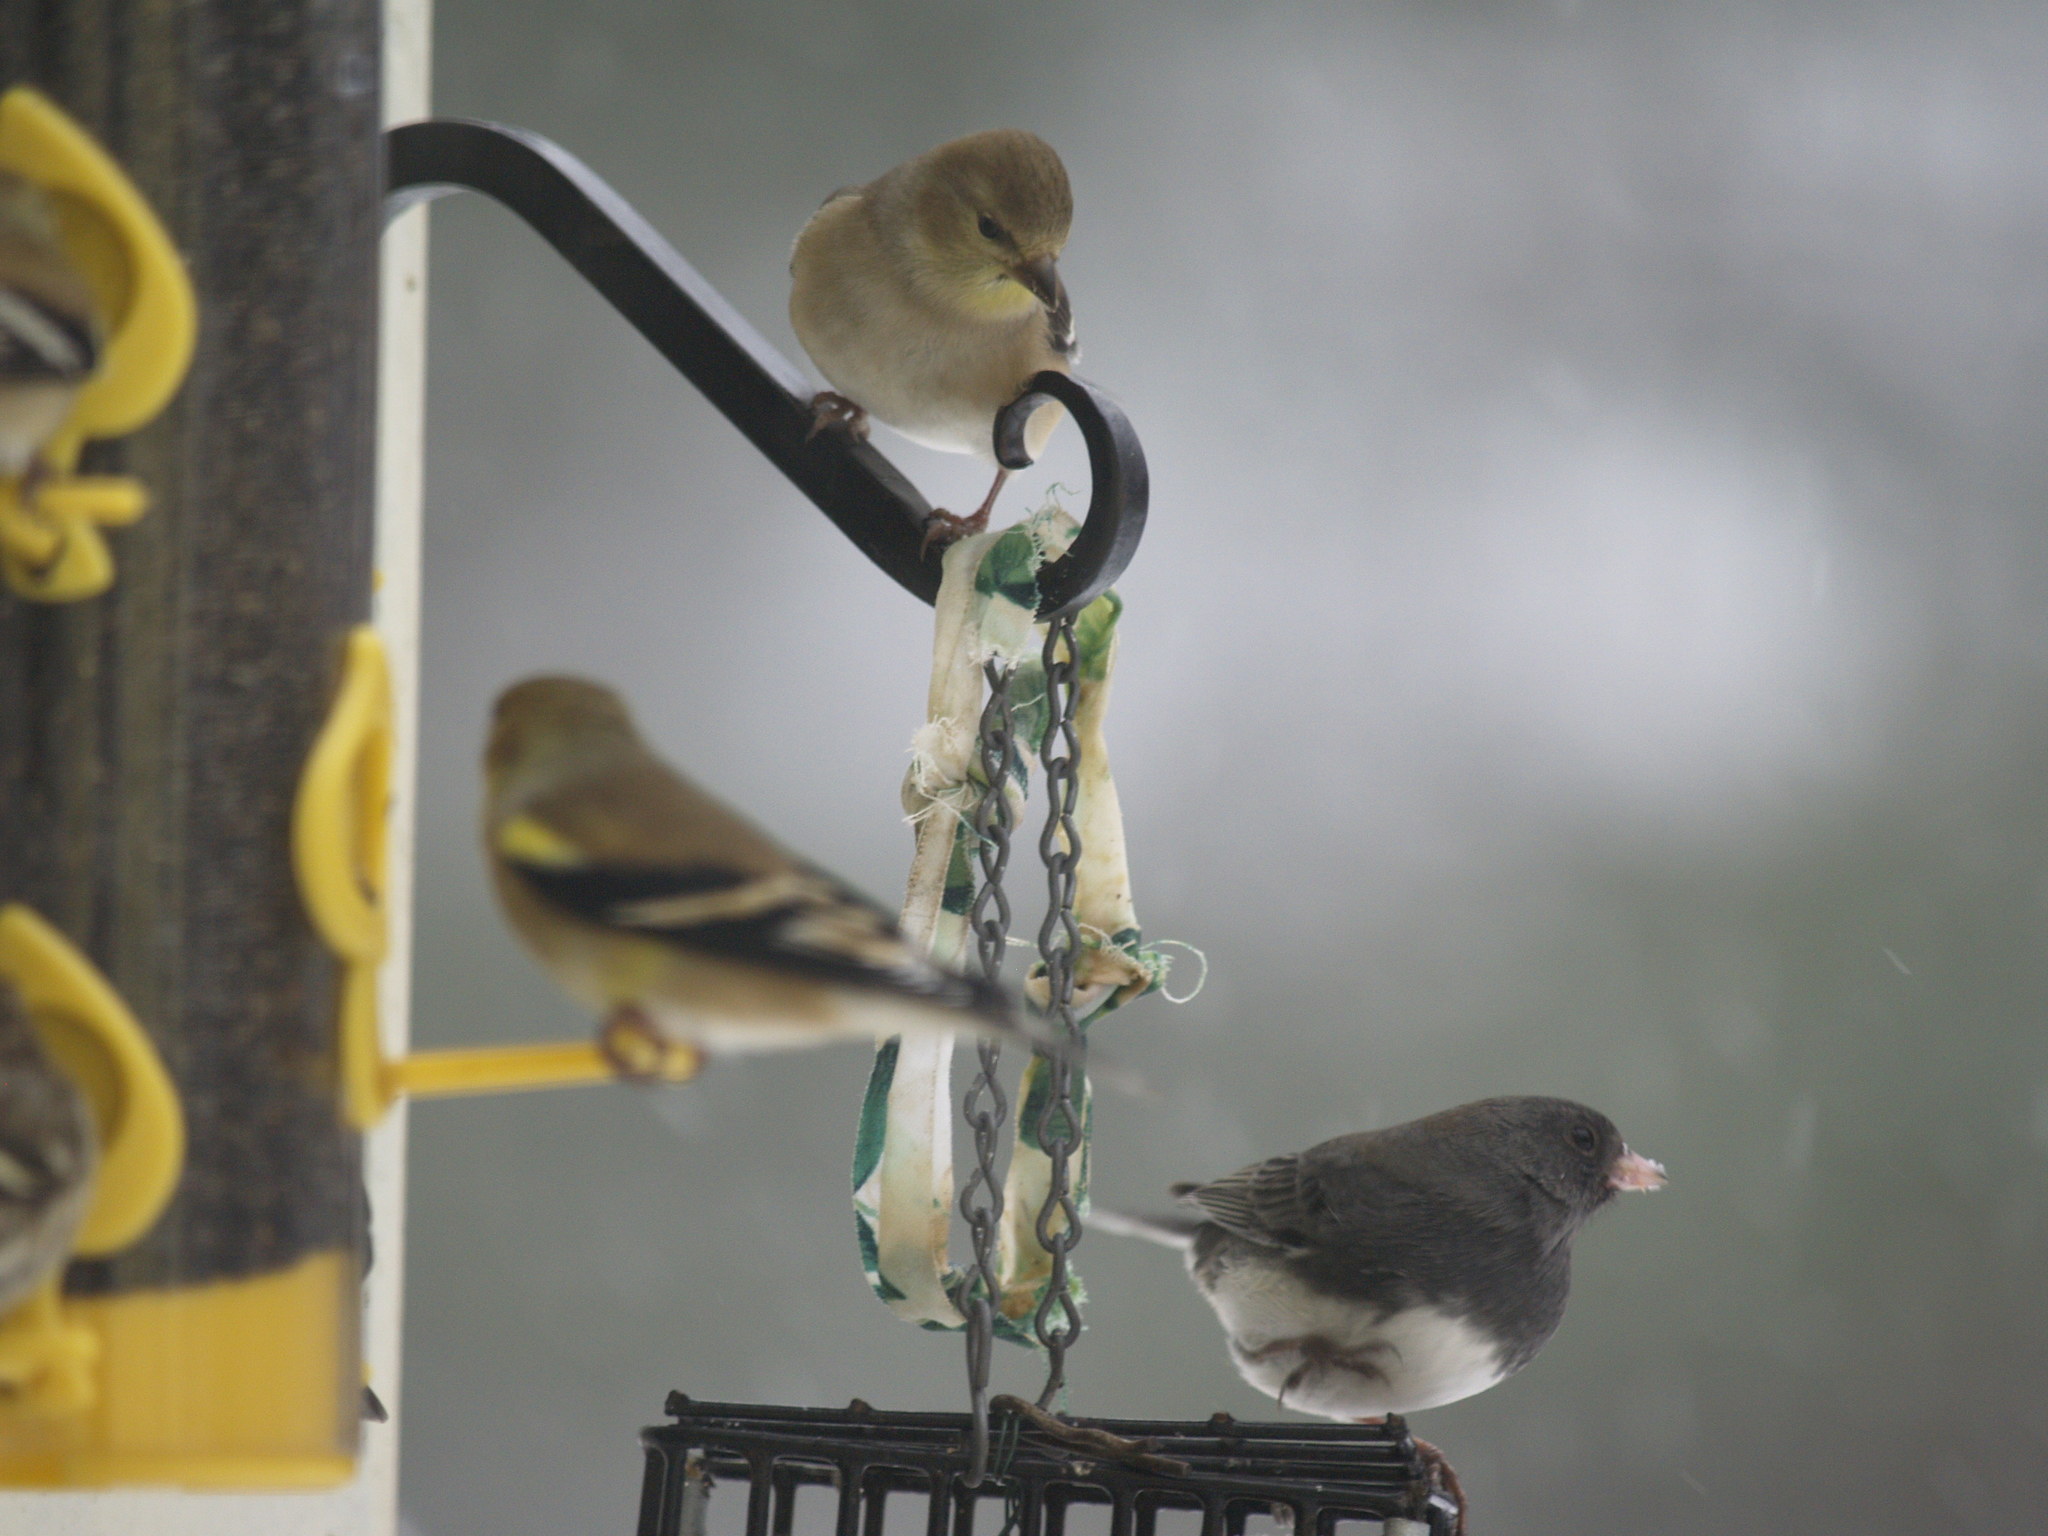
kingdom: Animalia
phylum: Chordata
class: Aves
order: Passeriformes
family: Passerellidae
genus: Junco
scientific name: Junco hyemalis
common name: Dark-eyed junco
